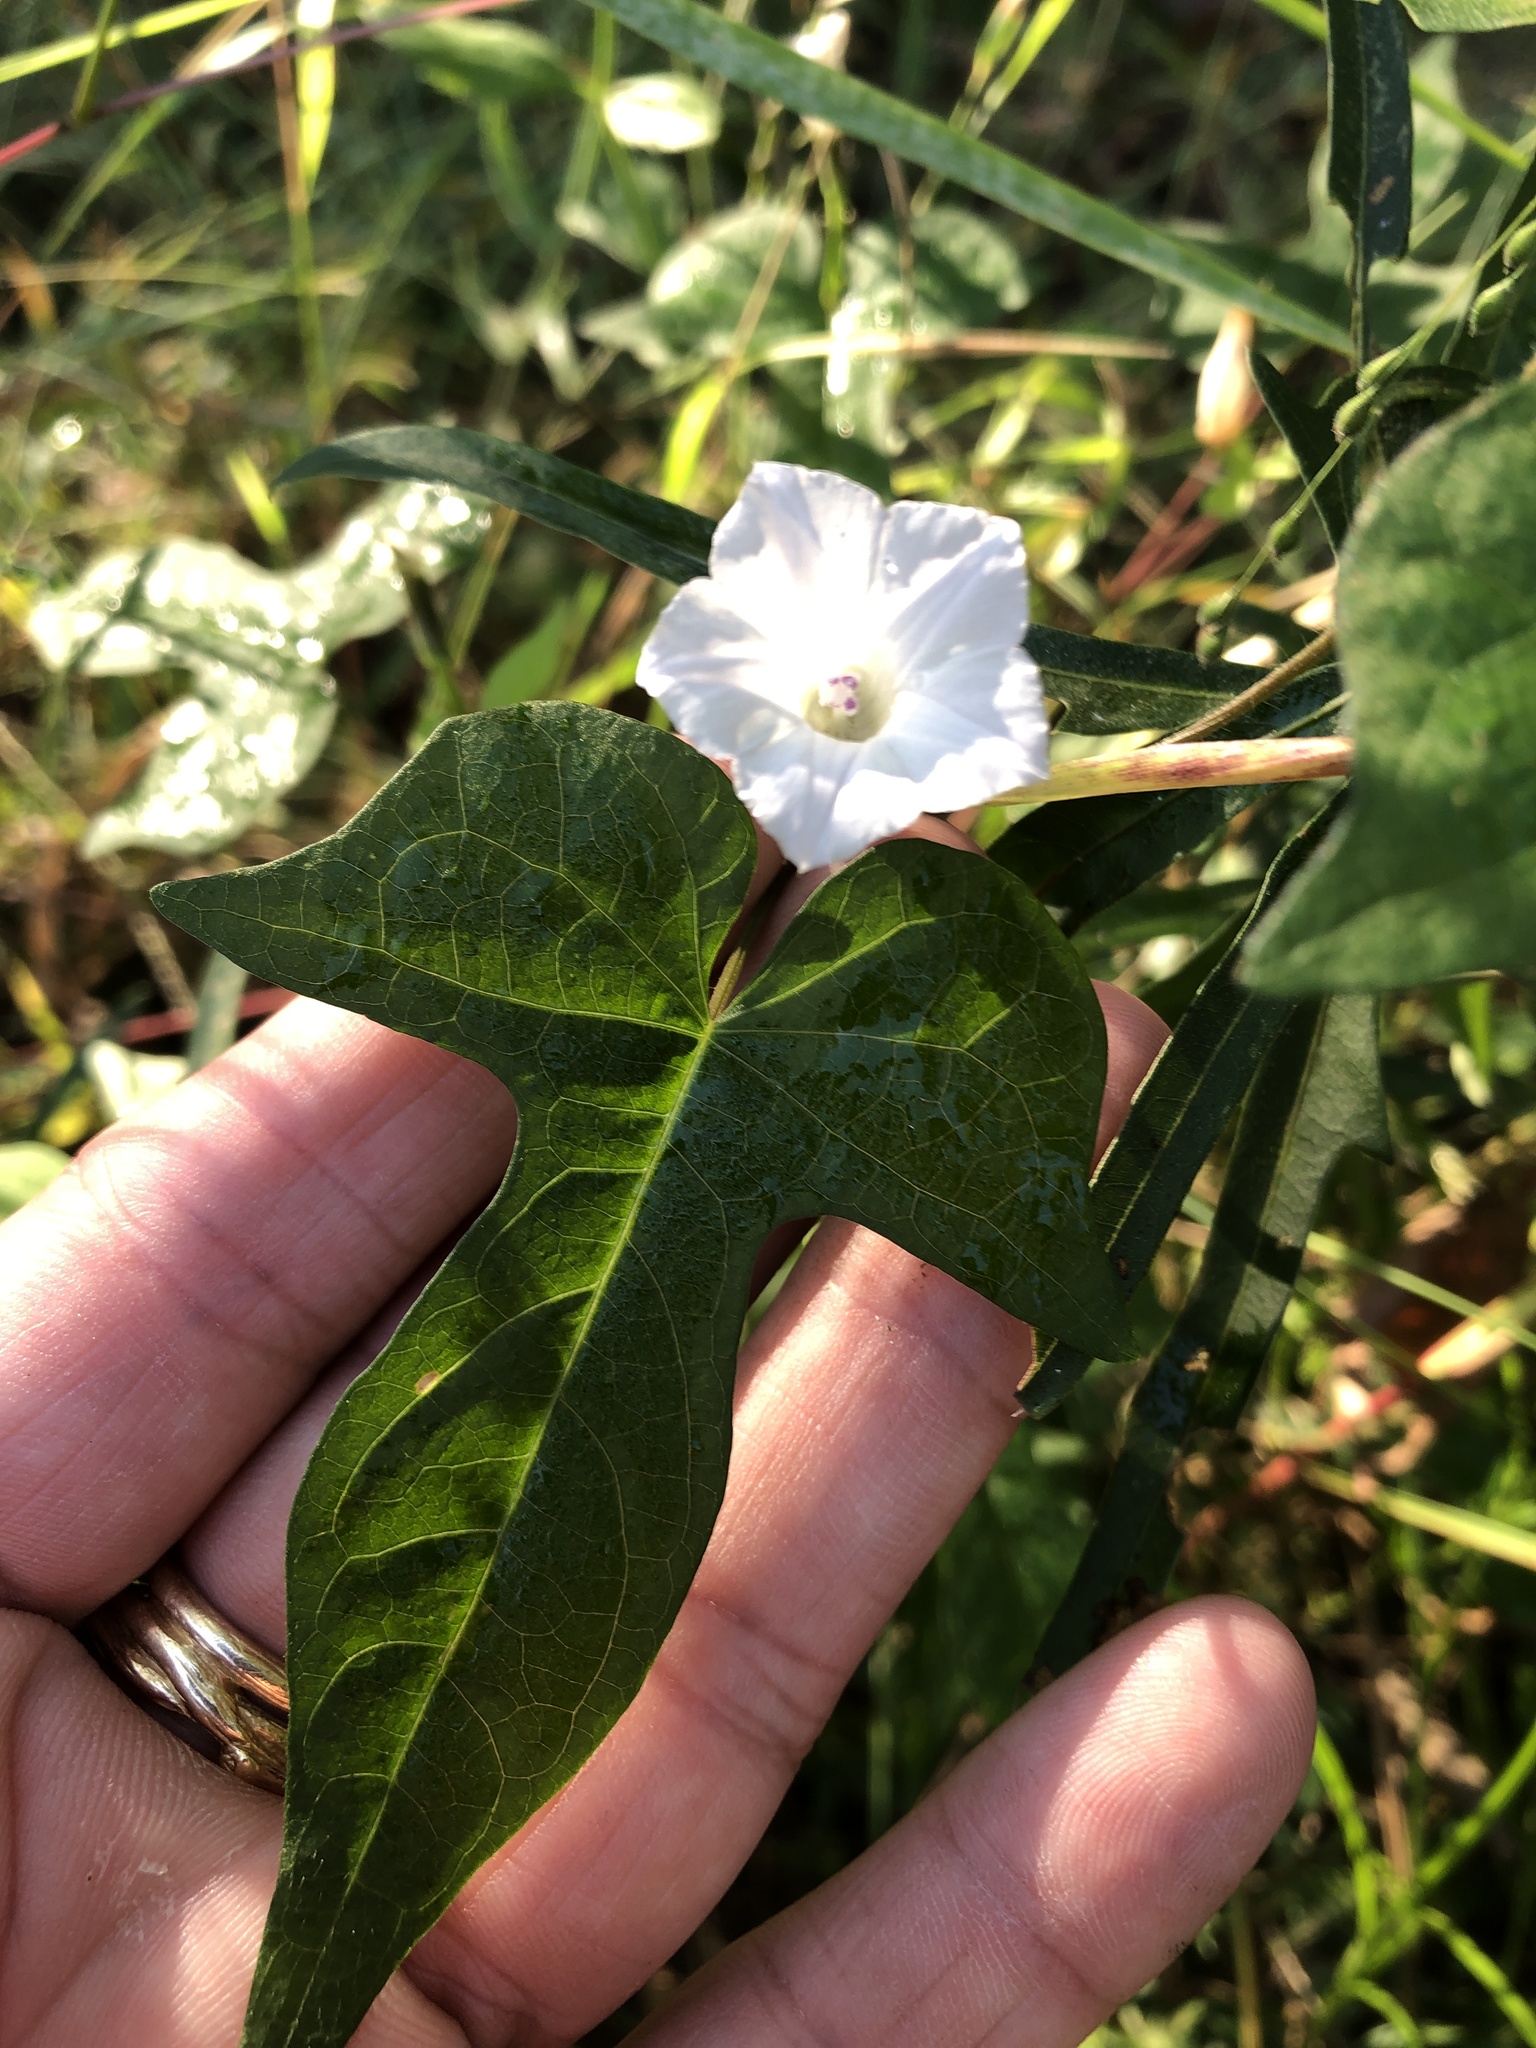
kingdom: Plantae
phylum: Tracheophyta
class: Magnoliopsida
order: Solanales
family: Convolvulaceae
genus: Ipomoea
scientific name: Ipomoea lacunosa
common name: White morning-glory
